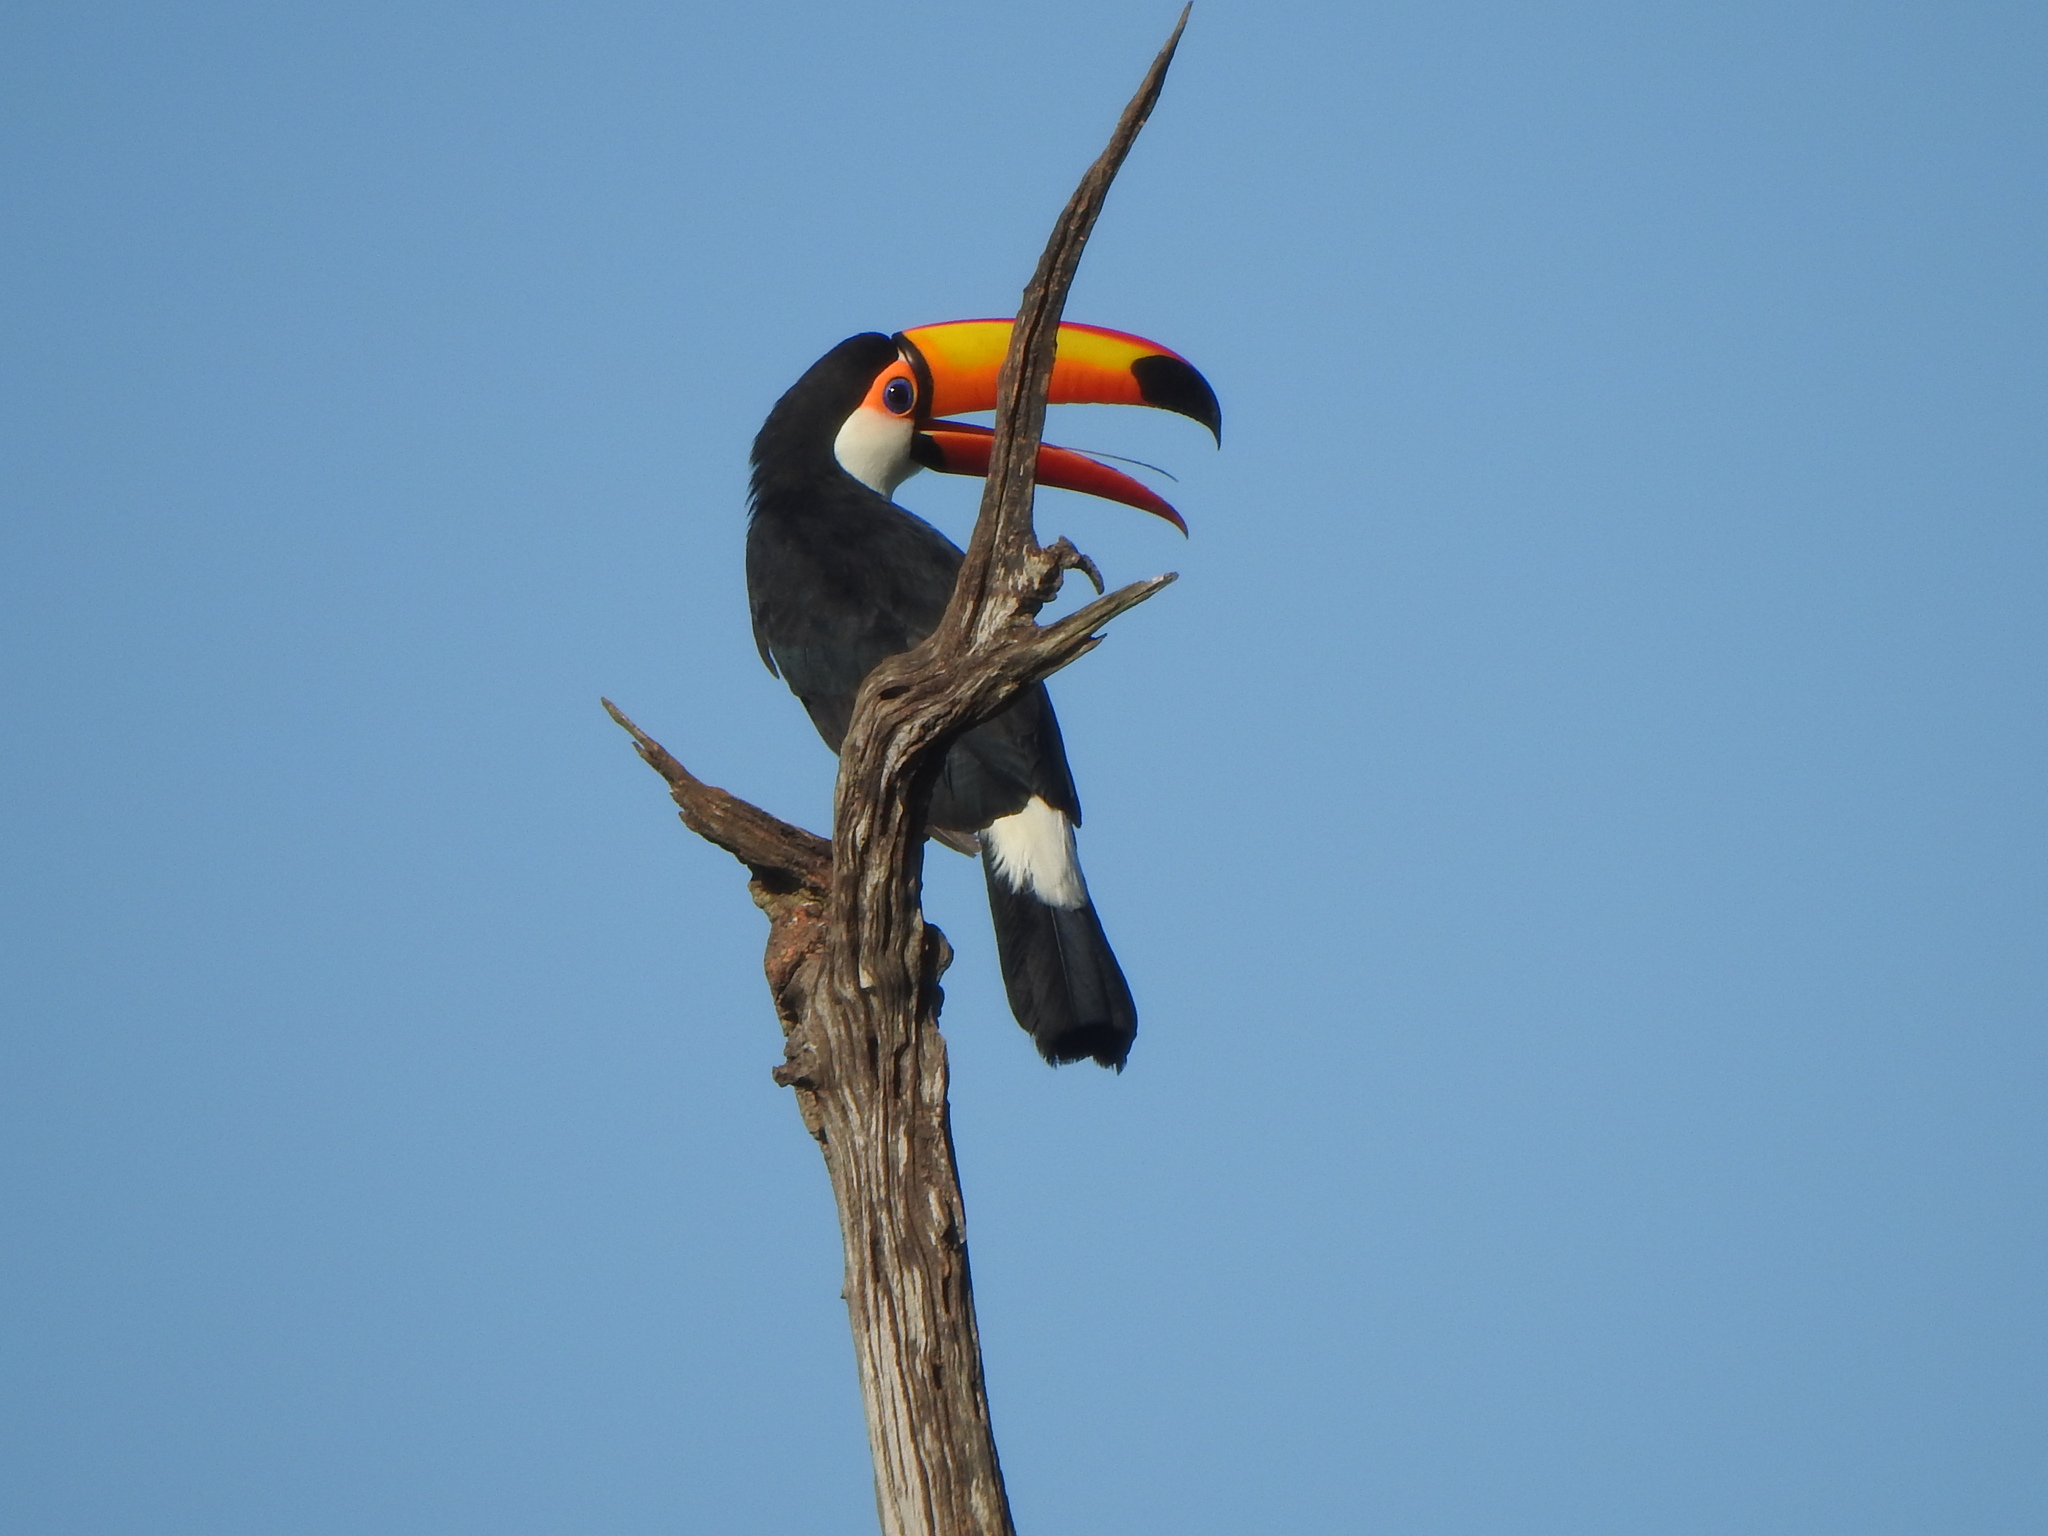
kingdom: Animalia
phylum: Chordata
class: Aves
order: Piciformes
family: Ramphastidae
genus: Ramphastos
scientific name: Ramphastos toco
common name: Toco toucan
